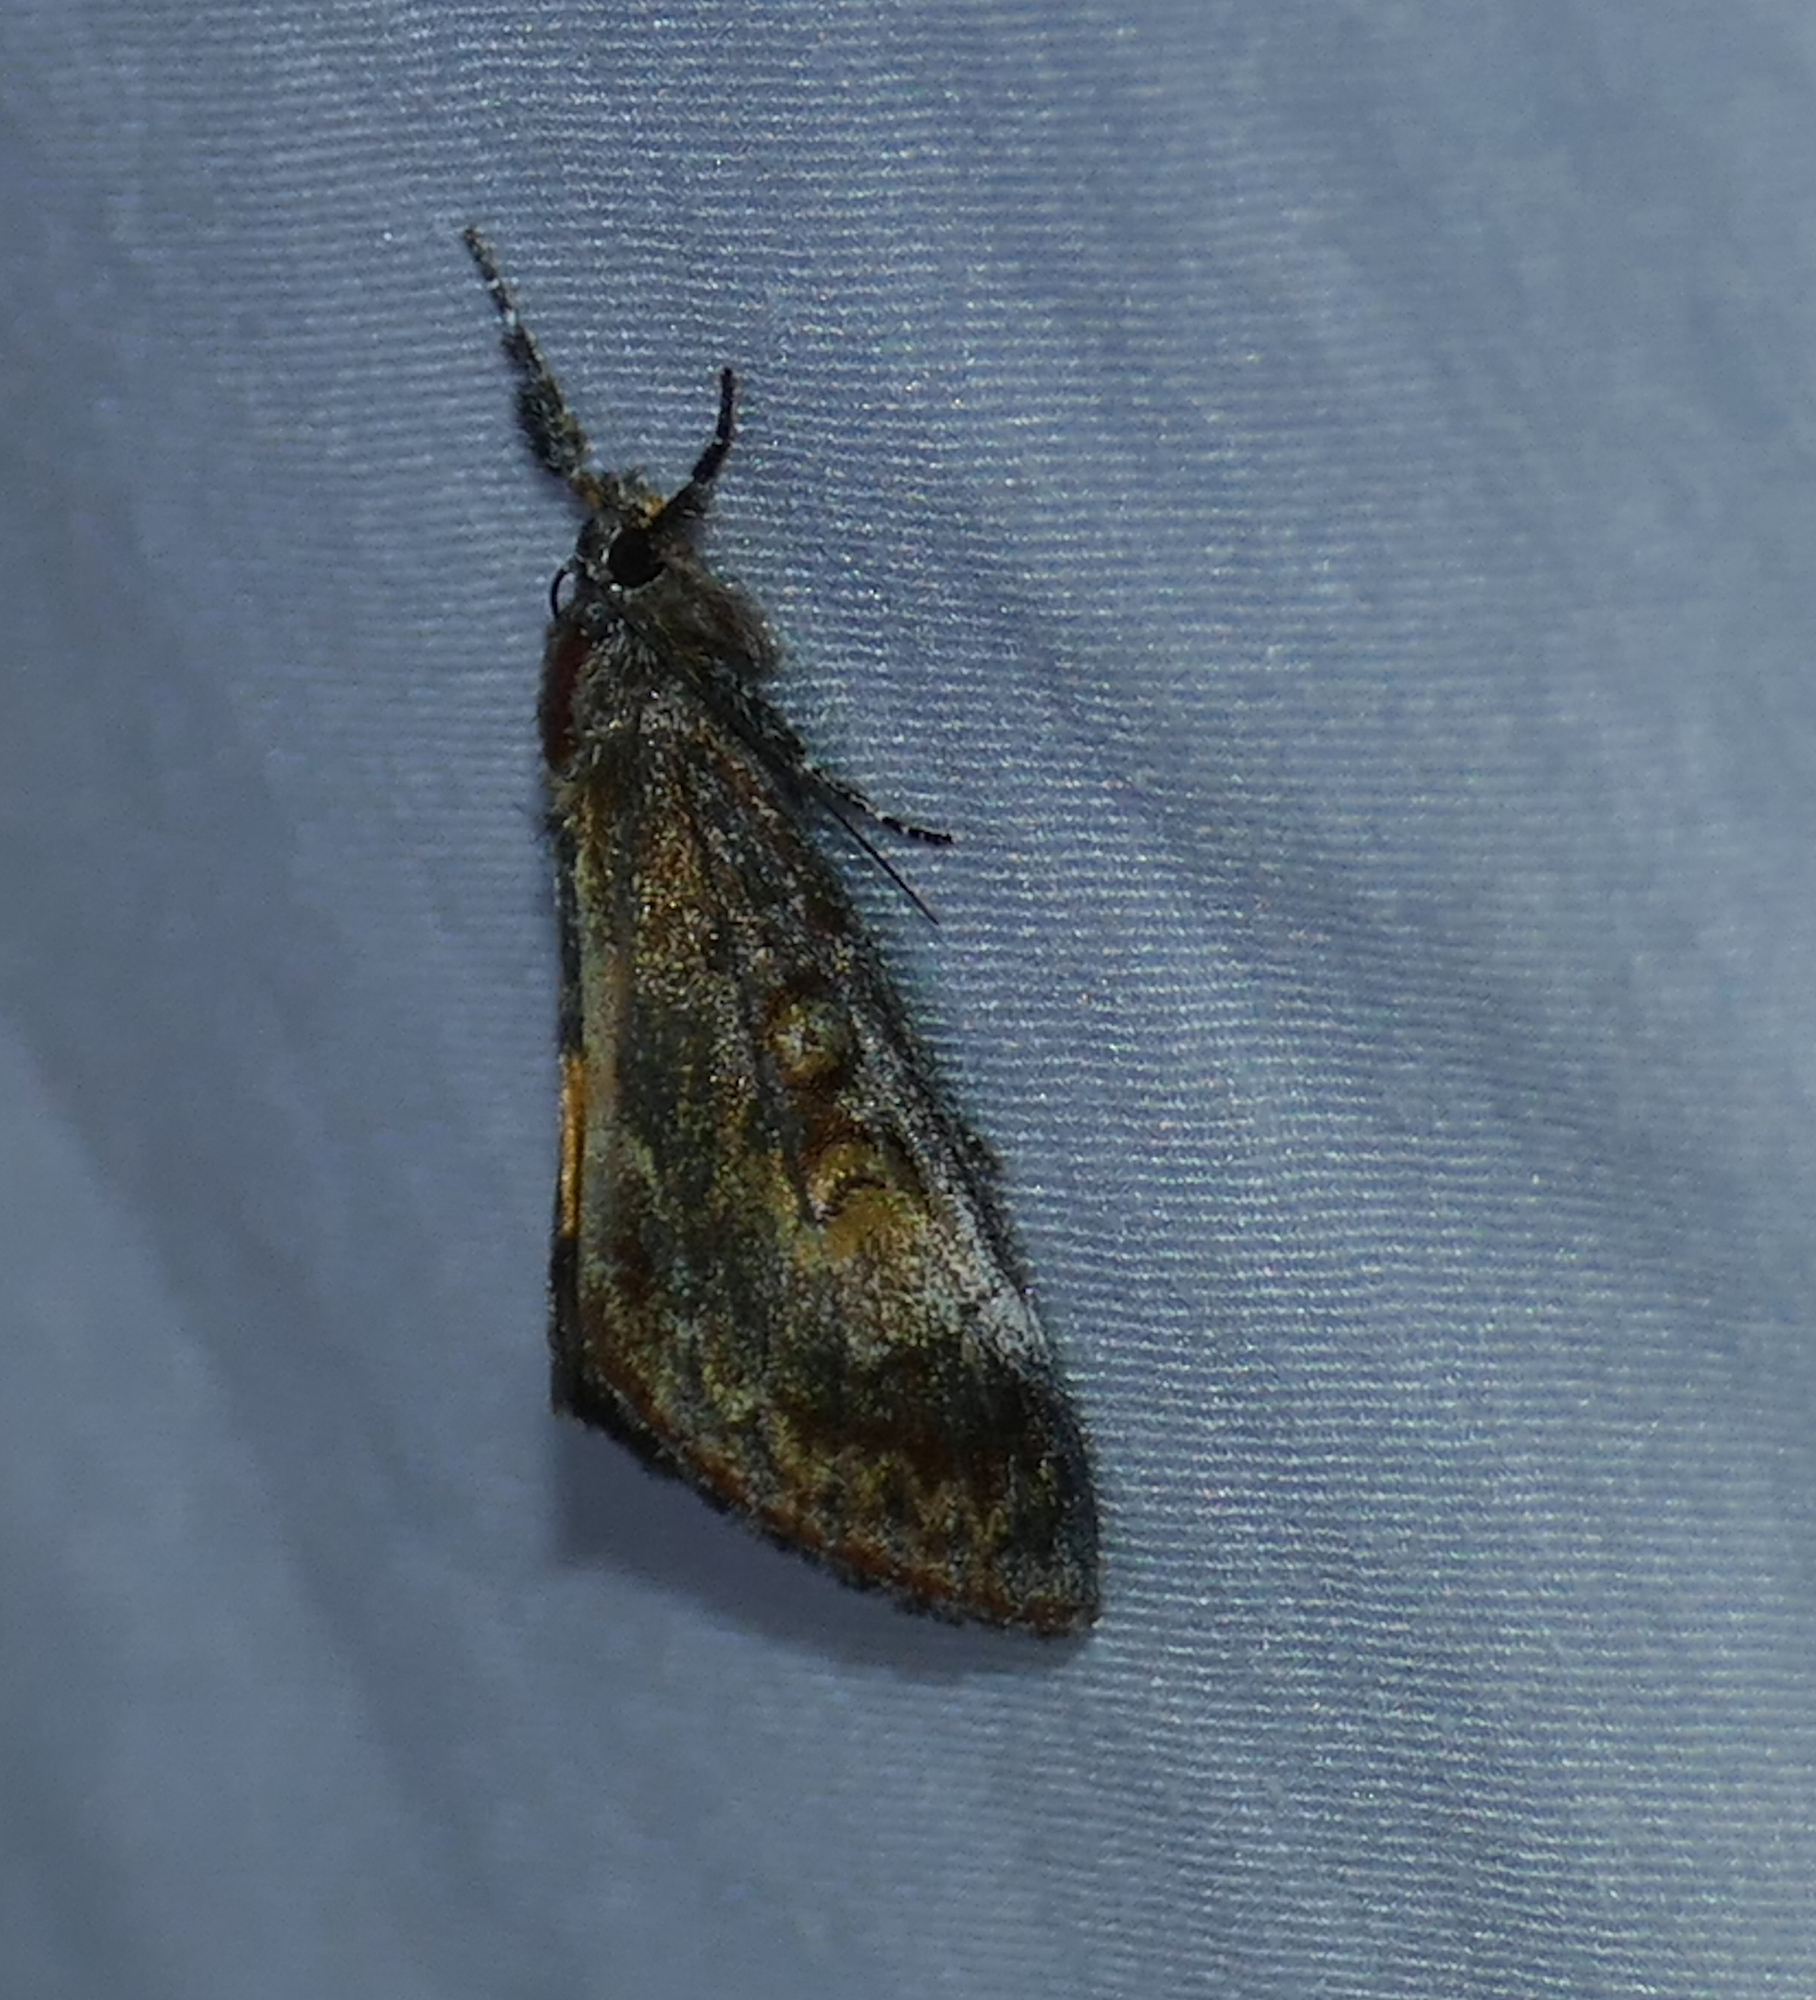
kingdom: Animalia
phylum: Arthropoda
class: Insecta
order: Lepidoptera
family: Noctuidae
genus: Gerra
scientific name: Gerra sevorsa
